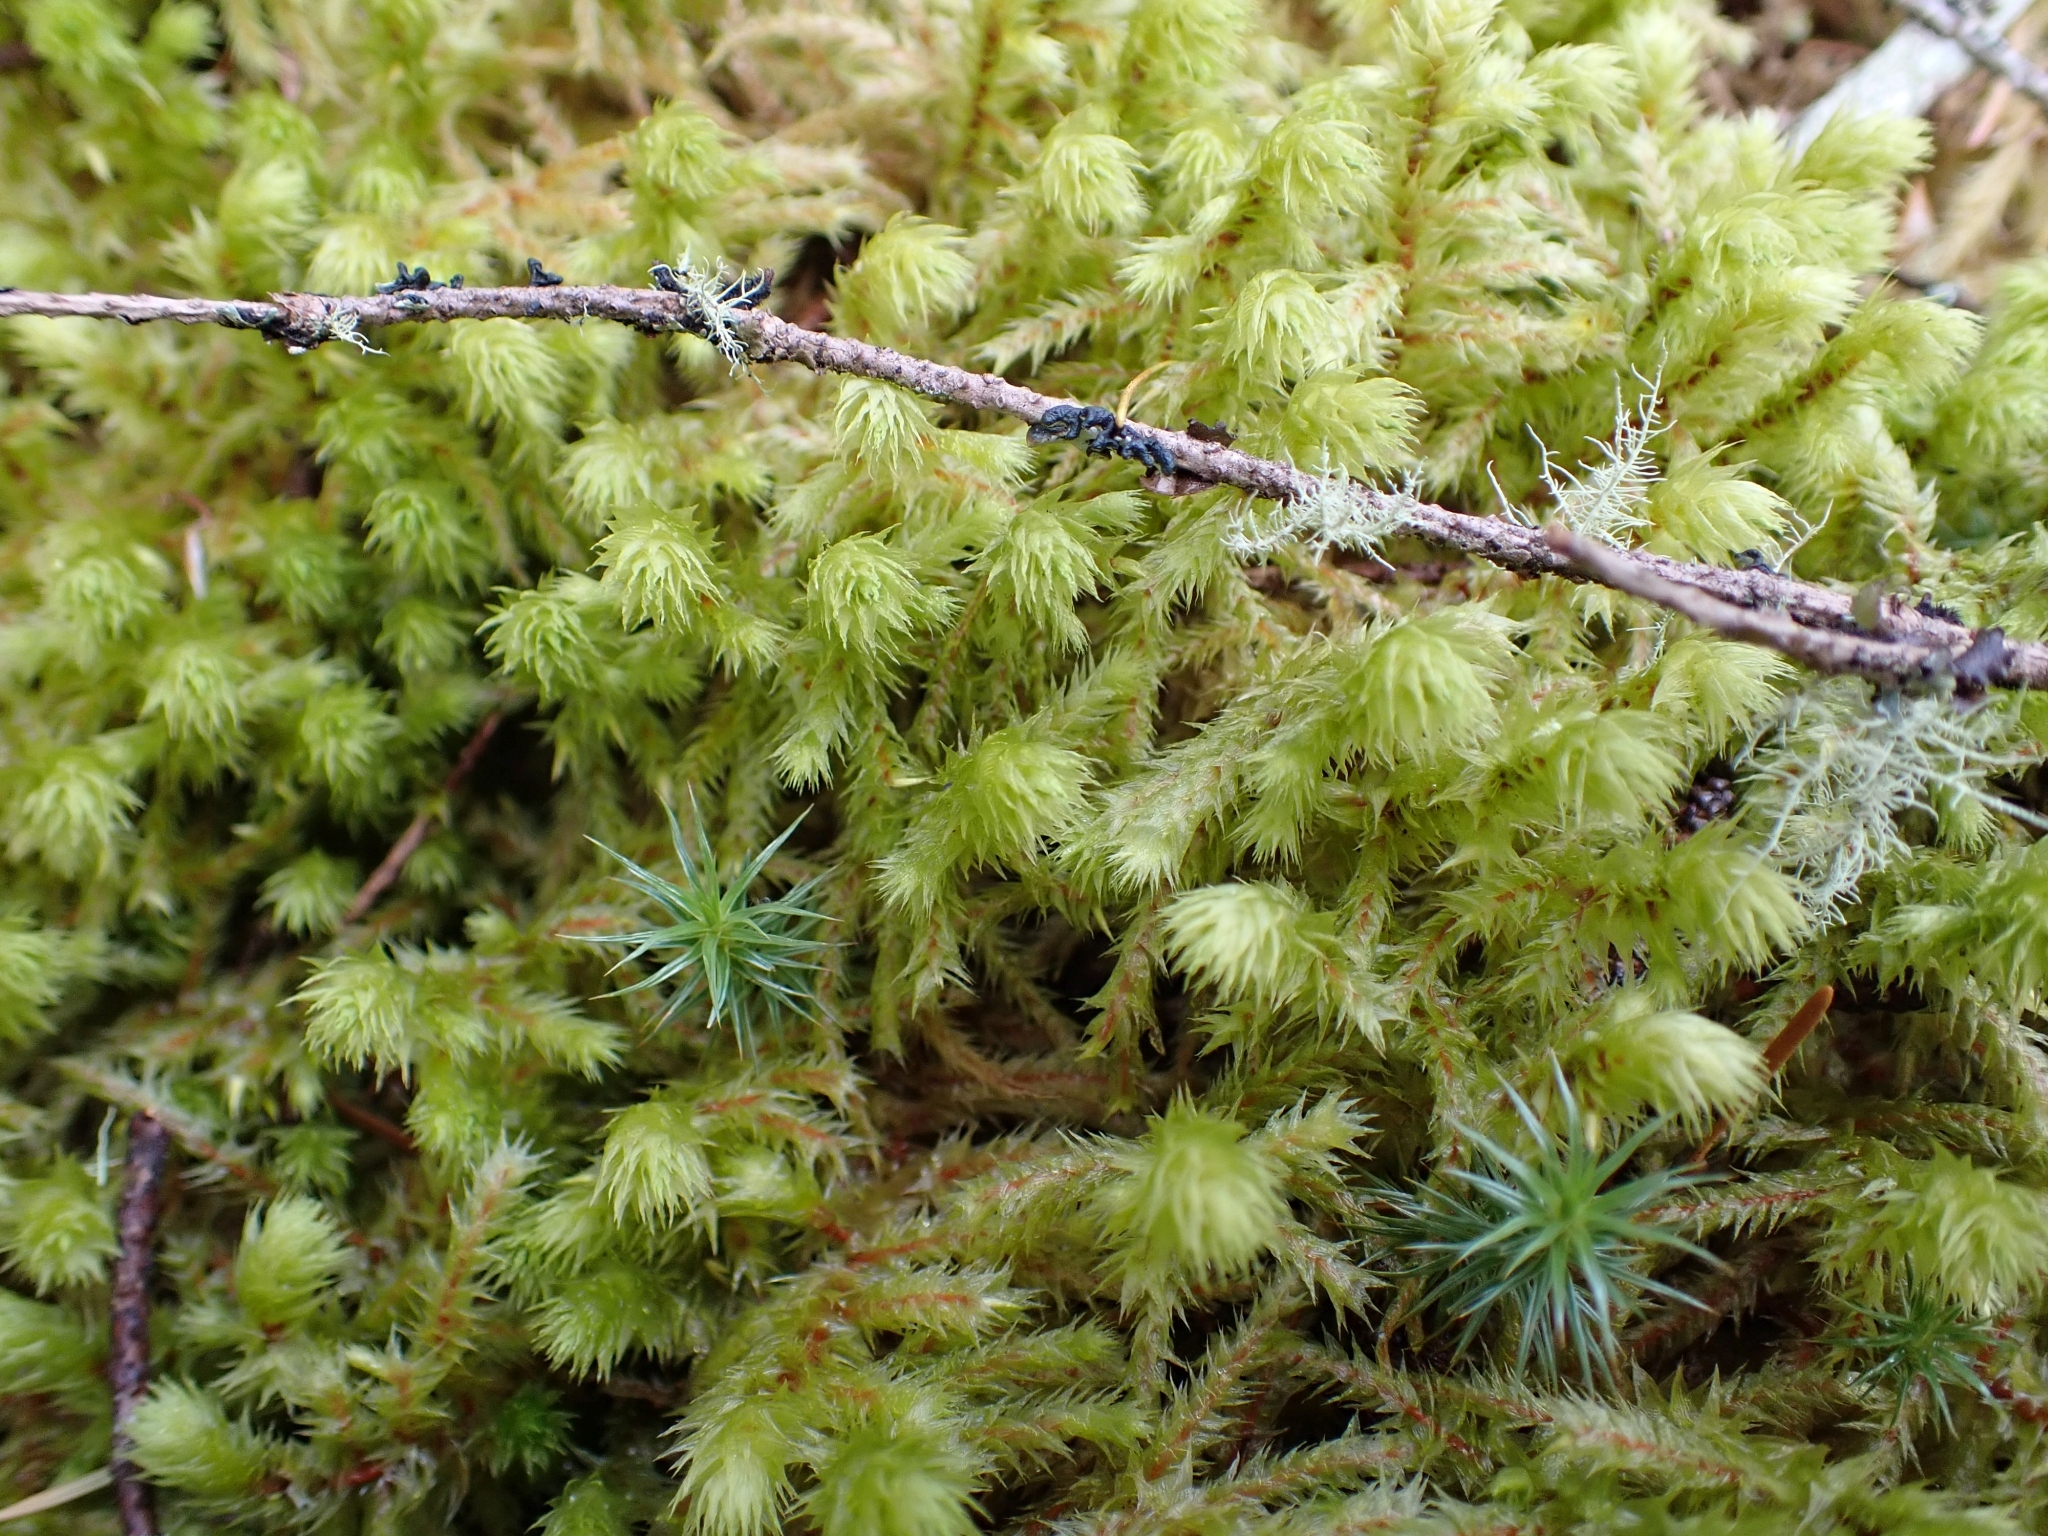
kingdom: Plantae
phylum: Bryophyta
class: Bryopsida
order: Hypnales
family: Hylocomiaceae
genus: Hylocomiadelphus
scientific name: Hylocomiadelphus triquetrus
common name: Rough goose neck moss
